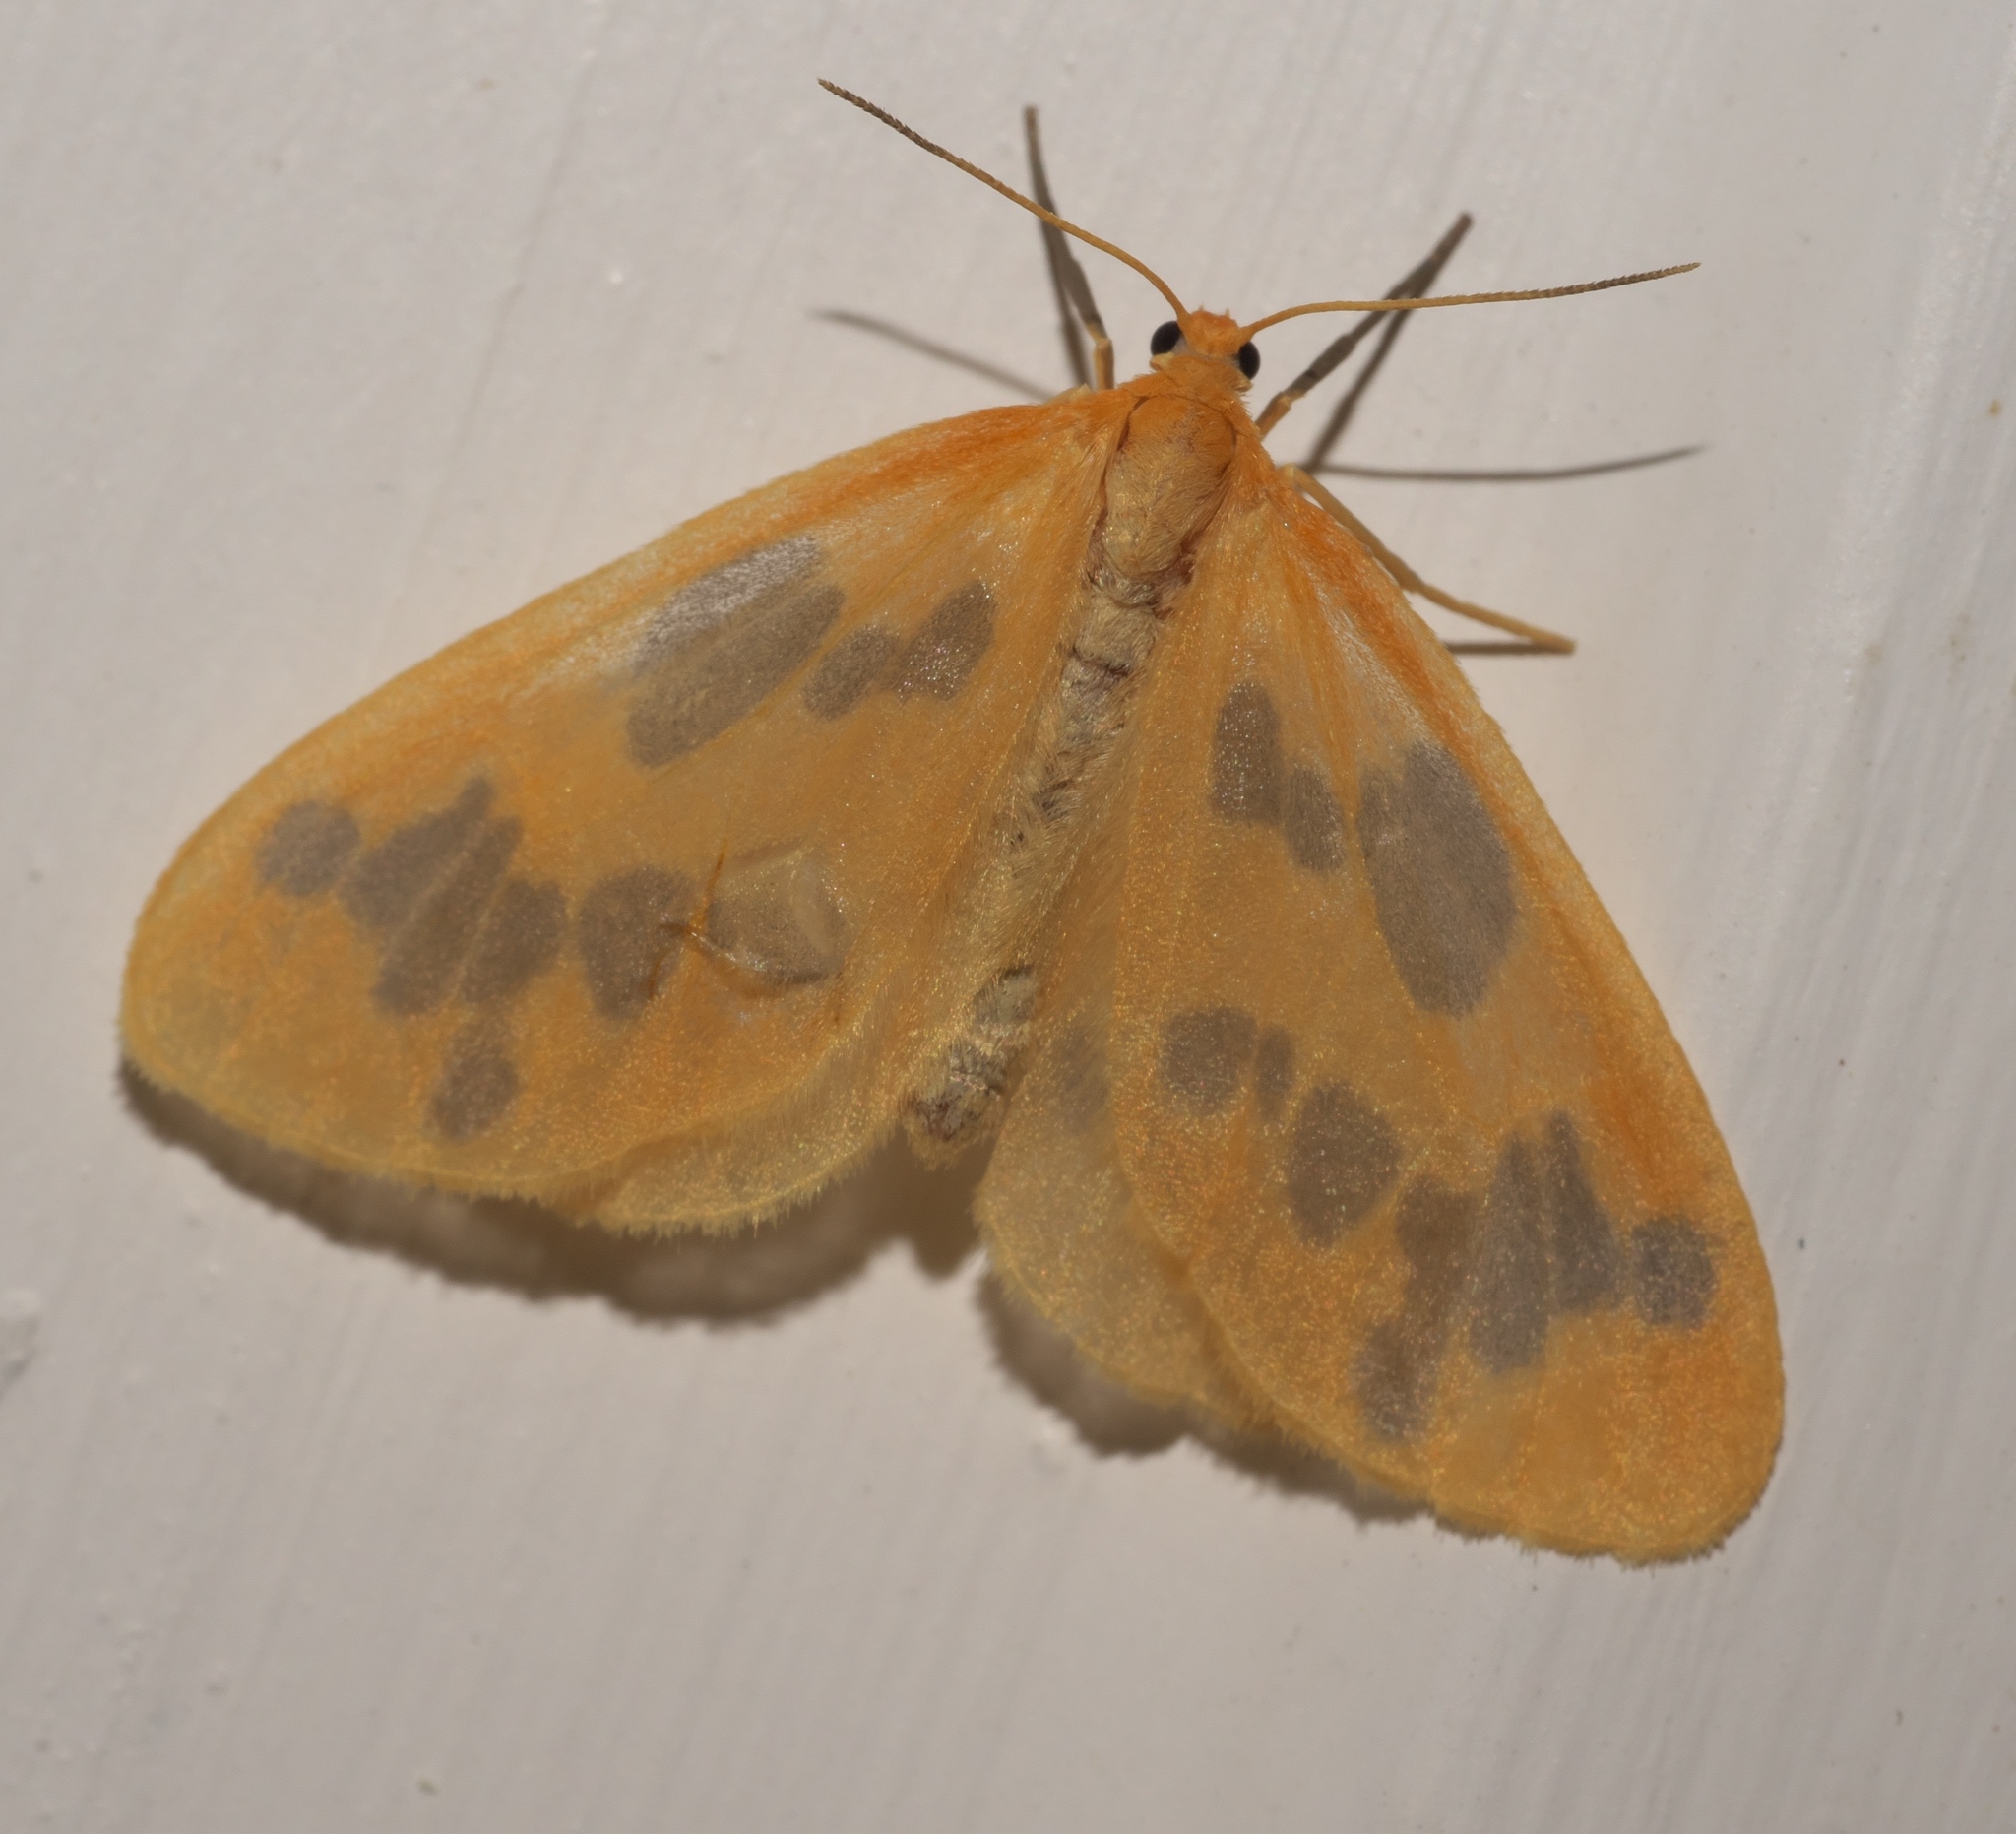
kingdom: Animalia
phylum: Arthropoda
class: Insecta
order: Lepidoptera
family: Geometridae
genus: Eubaphe
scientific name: Eubaphe mendica
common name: Beggar
